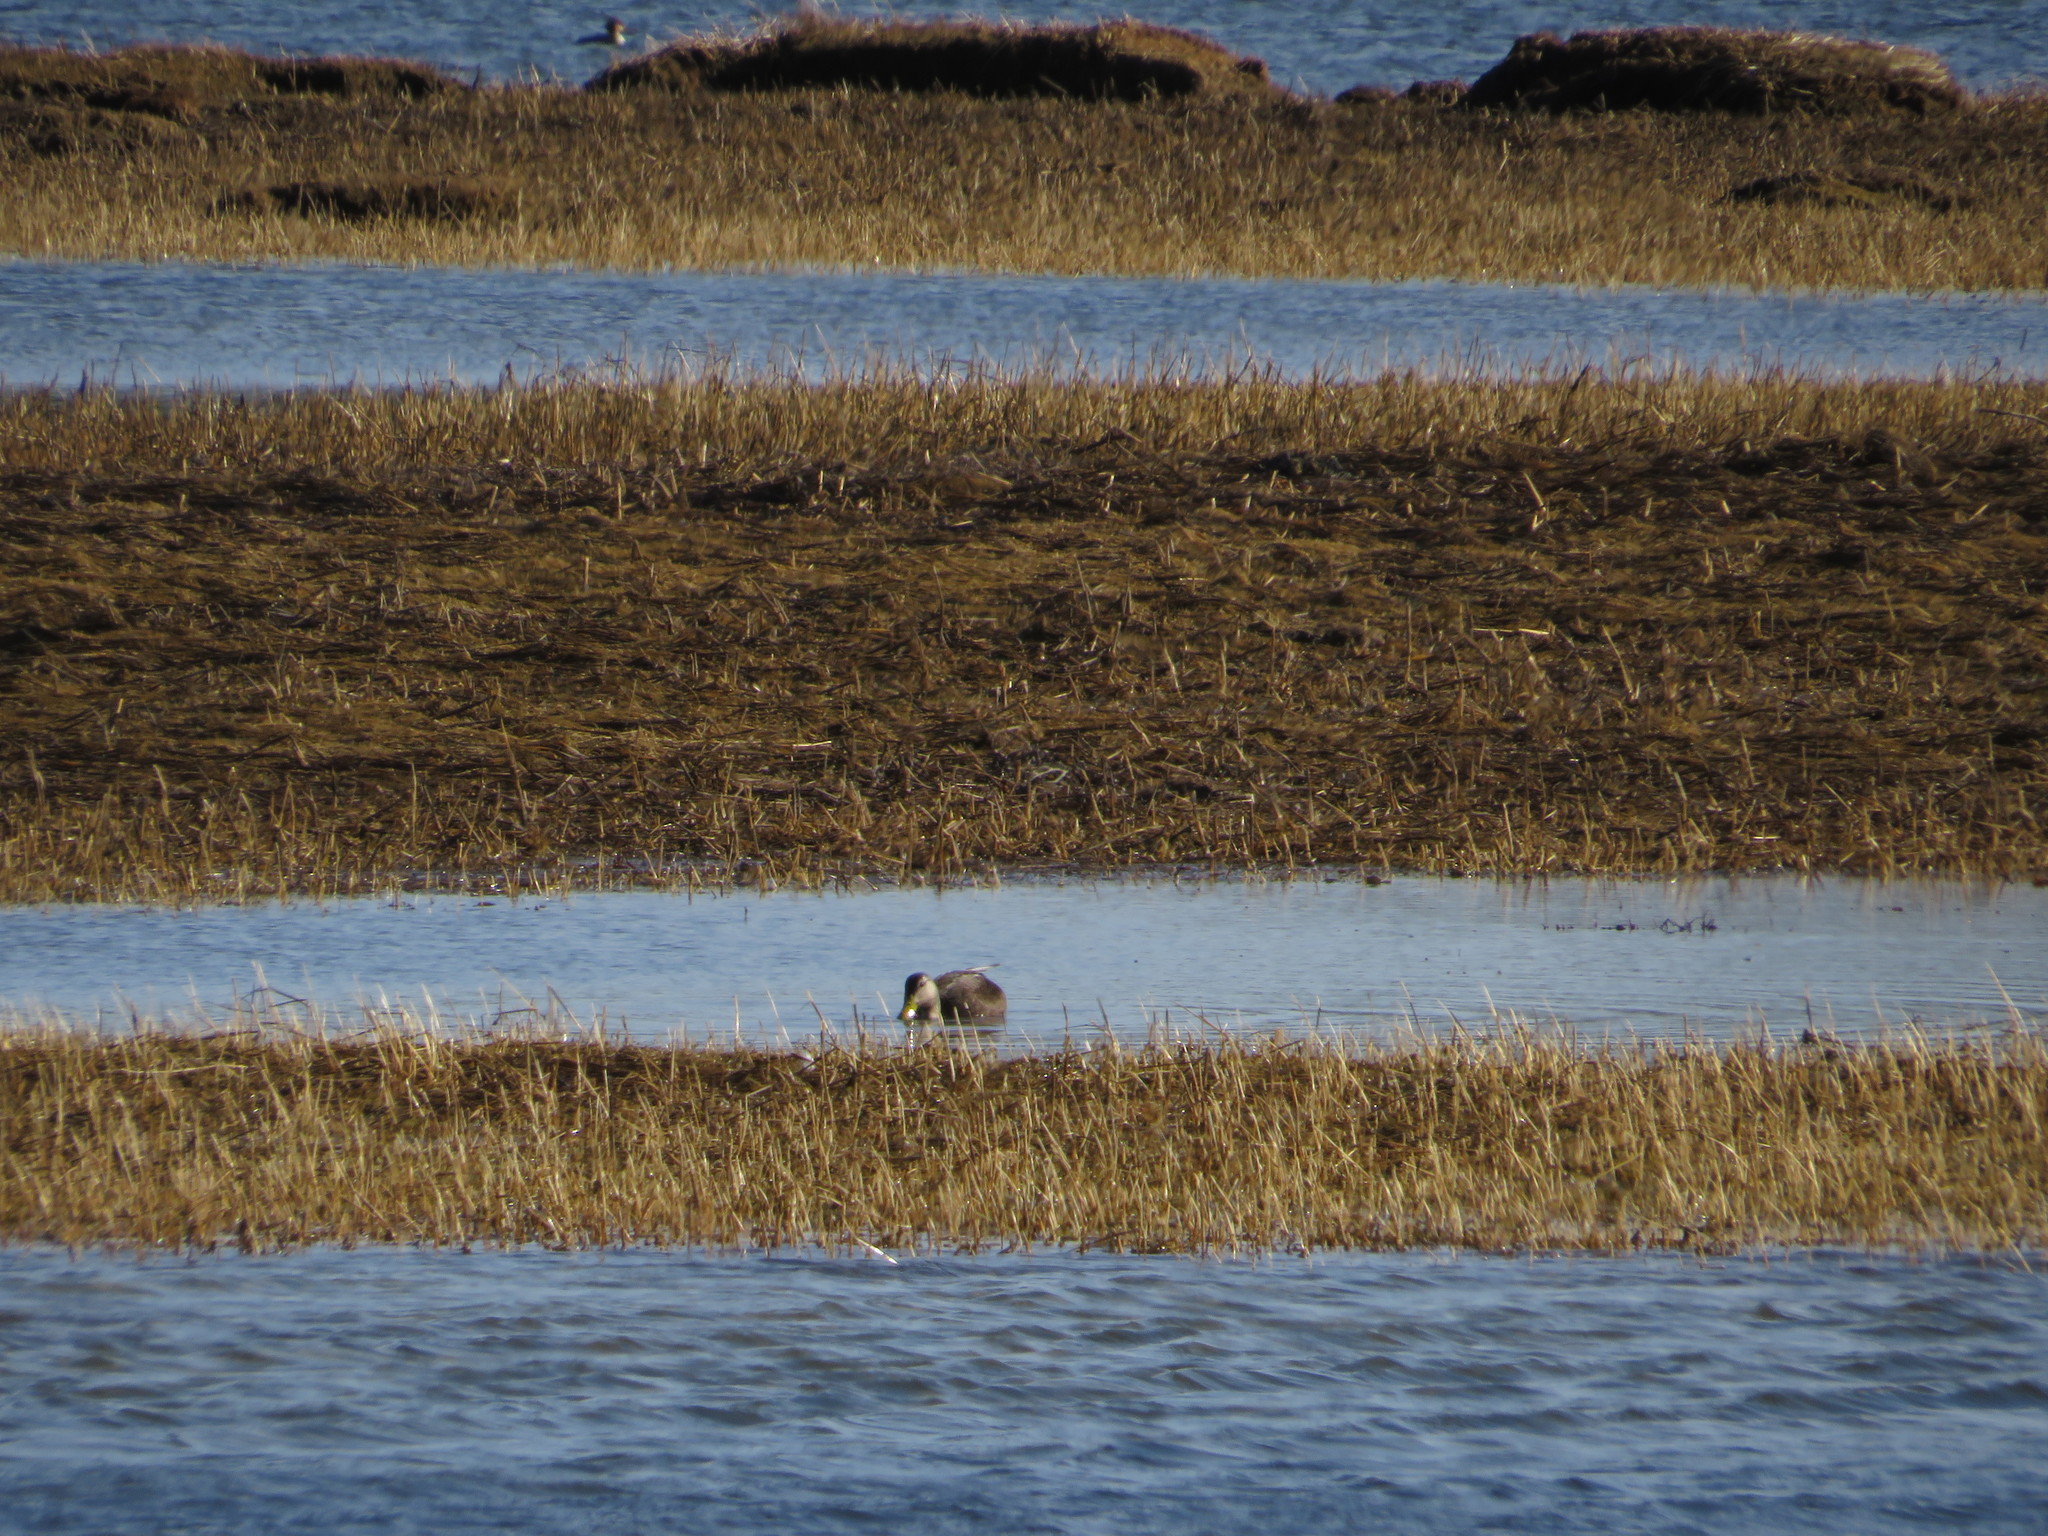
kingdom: Animalia
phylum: Chordata
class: Aves
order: Anseriformes
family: Anatidae
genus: Anas
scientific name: Anas rubripes
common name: American black duck
